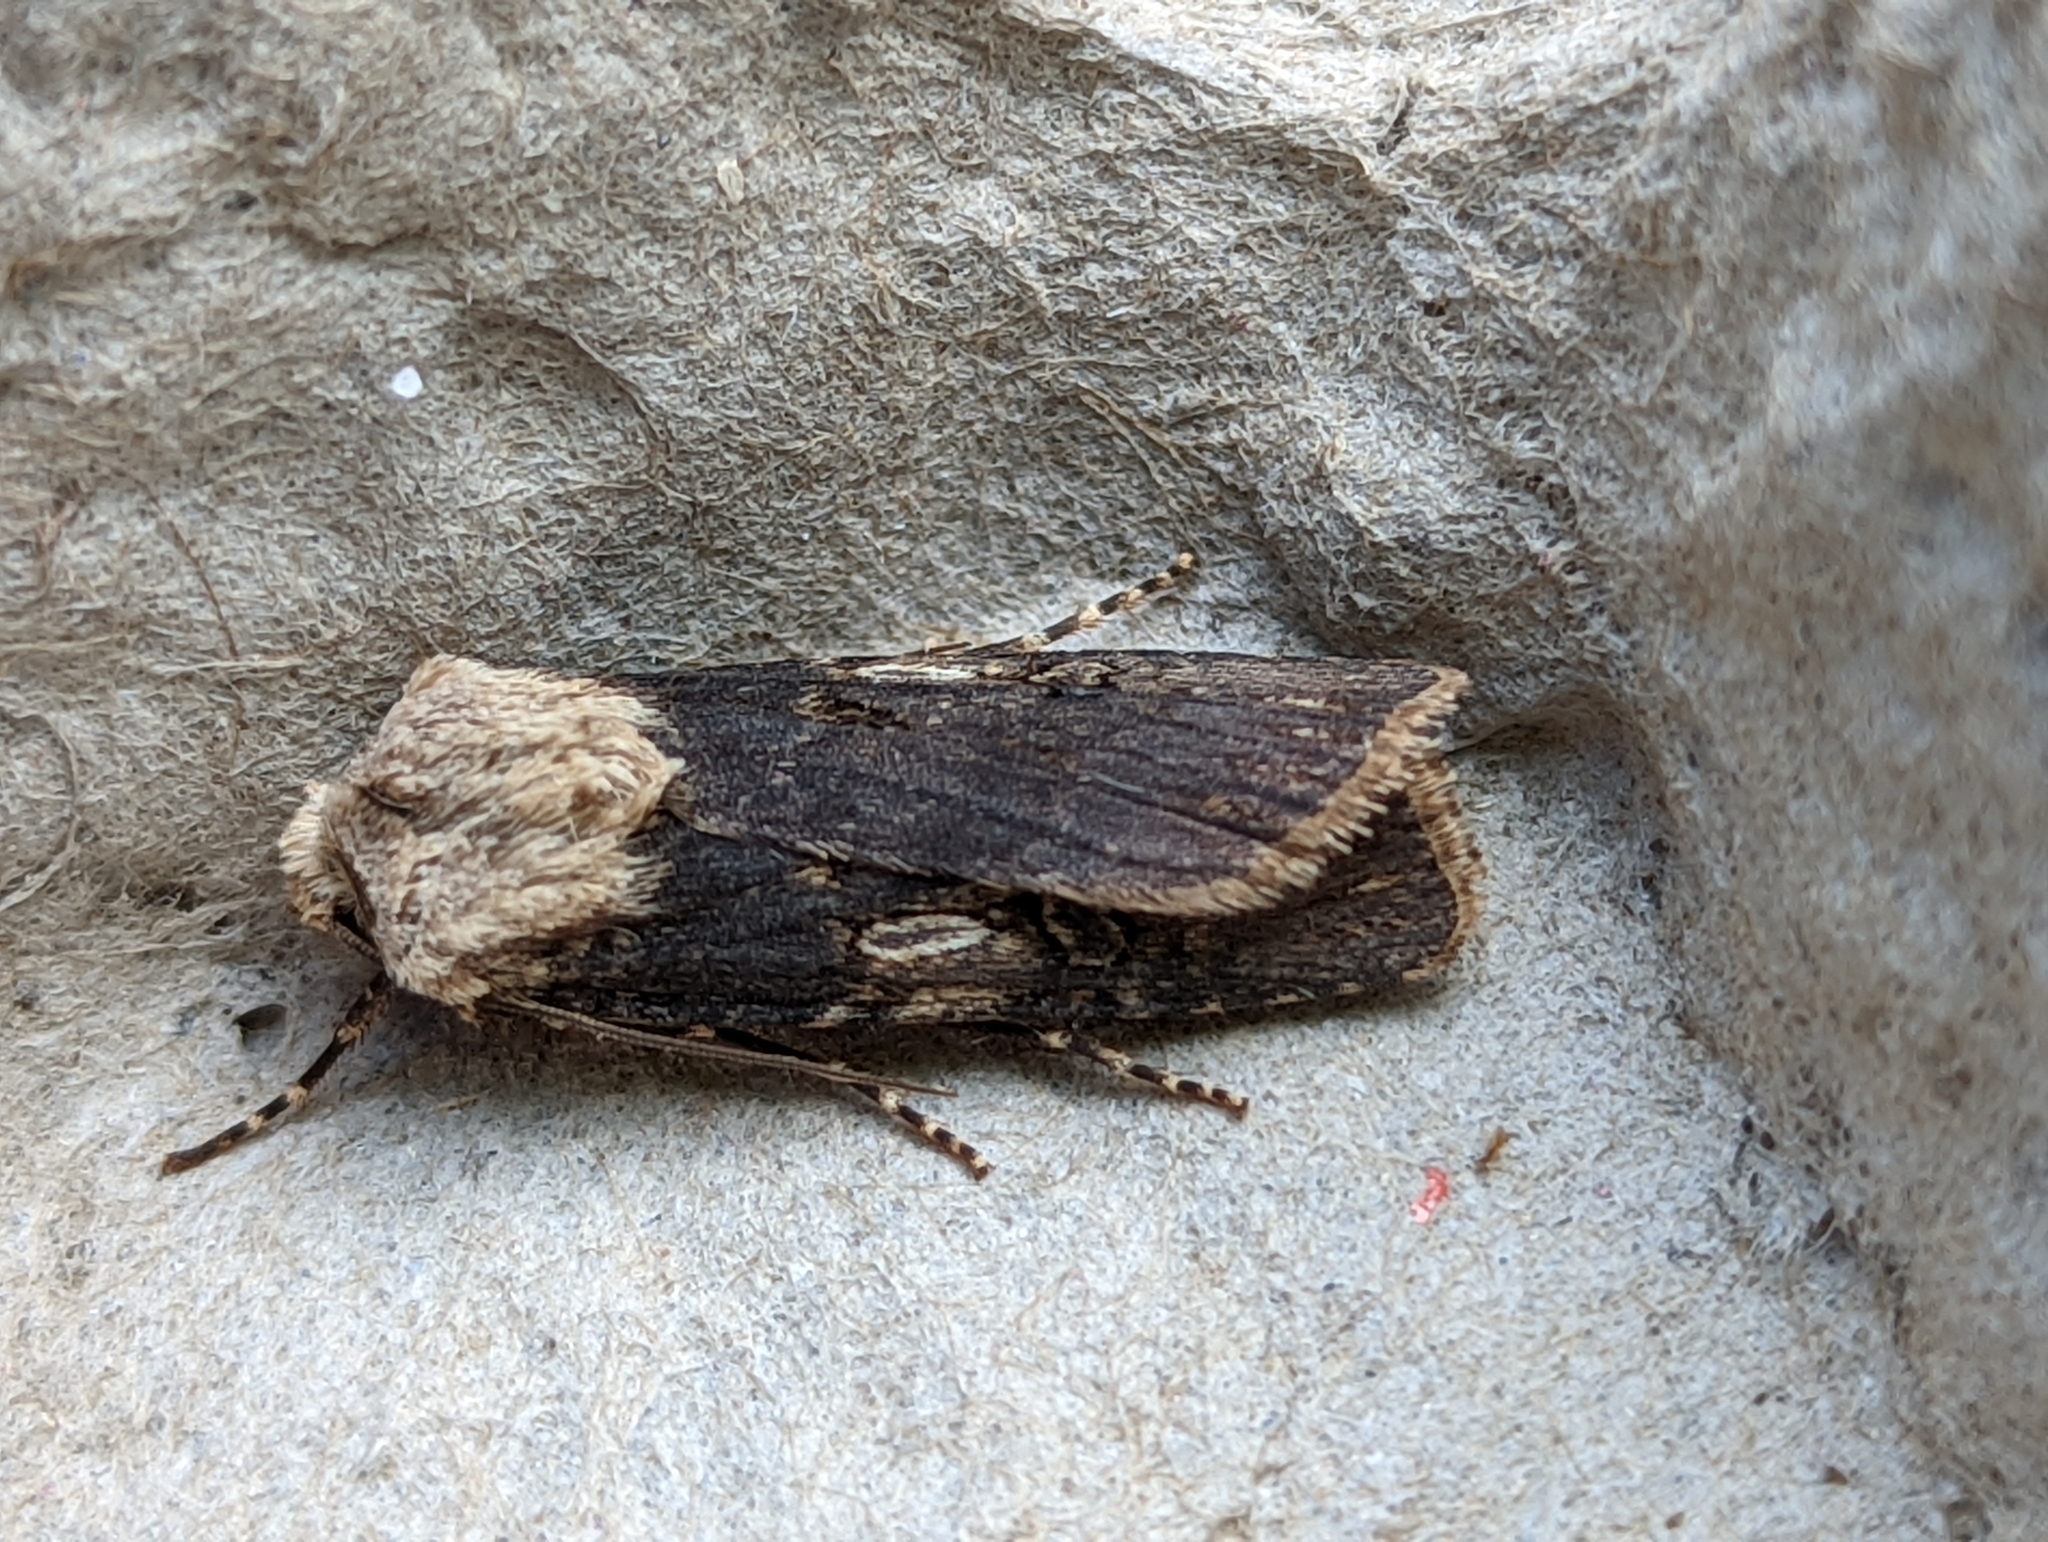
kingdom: Animalia
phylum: Arthropoda
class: Insecta
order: Lepidoptera
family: Noctuidae
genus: Agrotis
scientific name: Agrotis puta
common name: Shuttle-shaped dart
